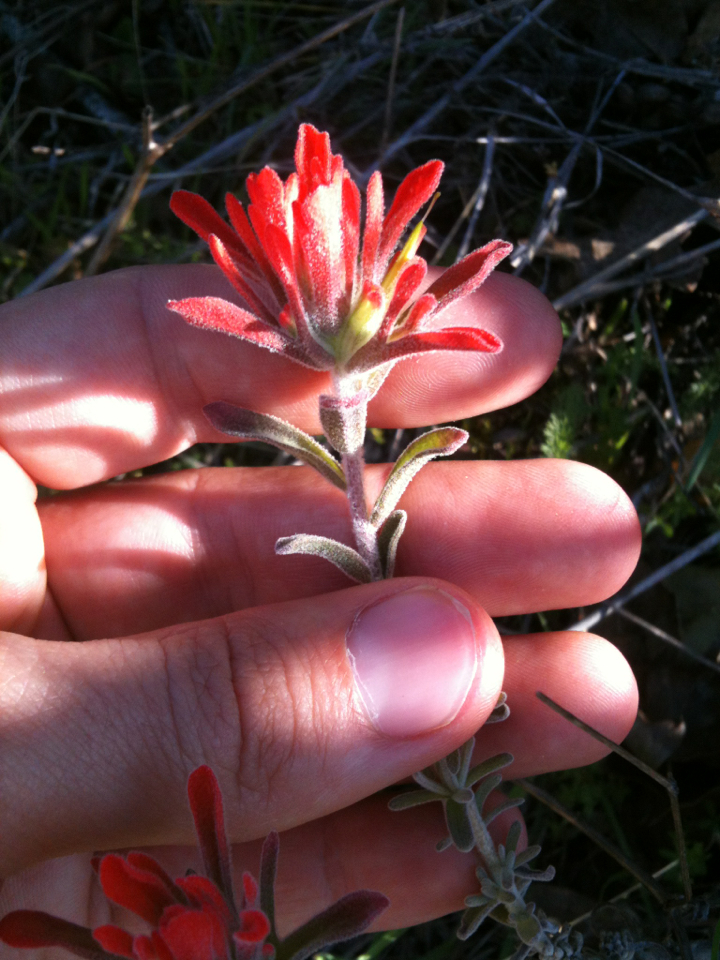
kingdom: Plantae
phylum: Tracheophyta
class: Magnoliopsida
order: Lamiales
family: Orobanchaceae
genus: Castilleja
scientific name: Castilleja foliolosa
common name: Woolly indian paintbrush
